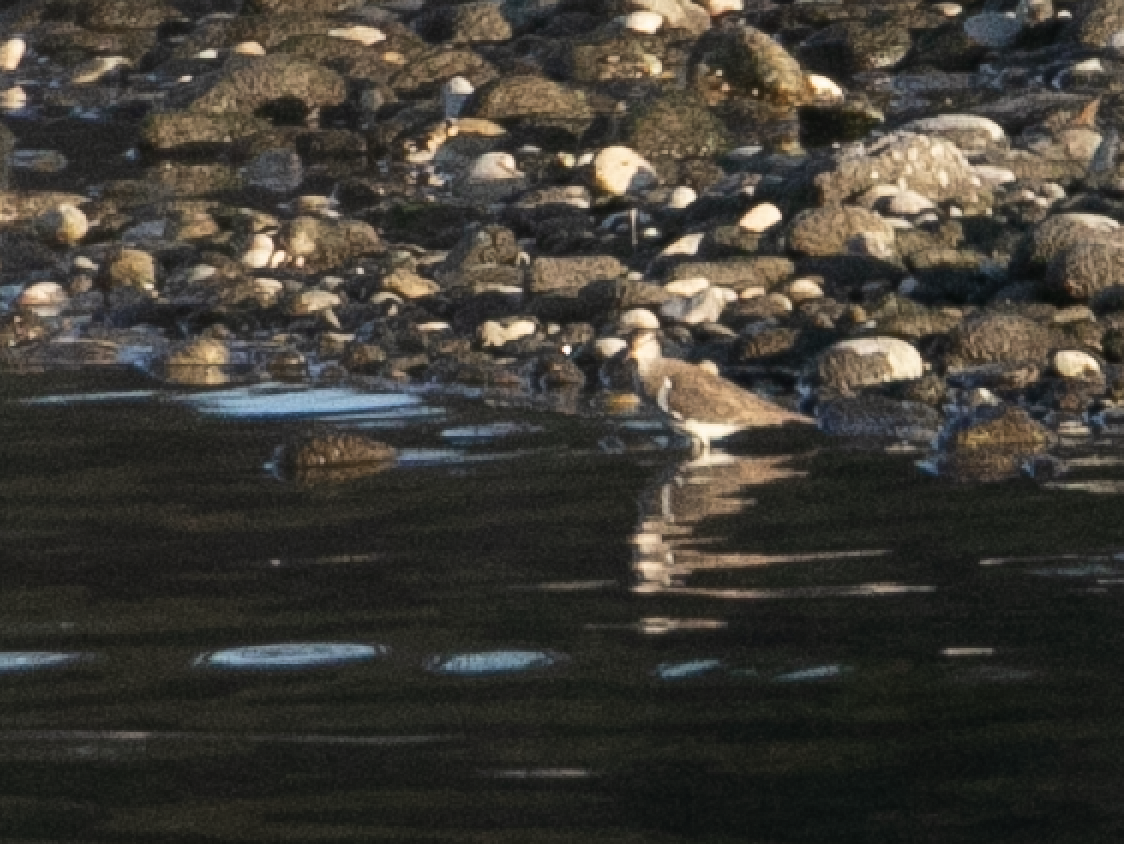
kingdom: Animalia
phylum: Chordata
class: Aves
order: Charadriiformes
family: Scolopacidae
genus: Actitis
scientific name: Actitis hypoleucos
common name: Common sandpiper
